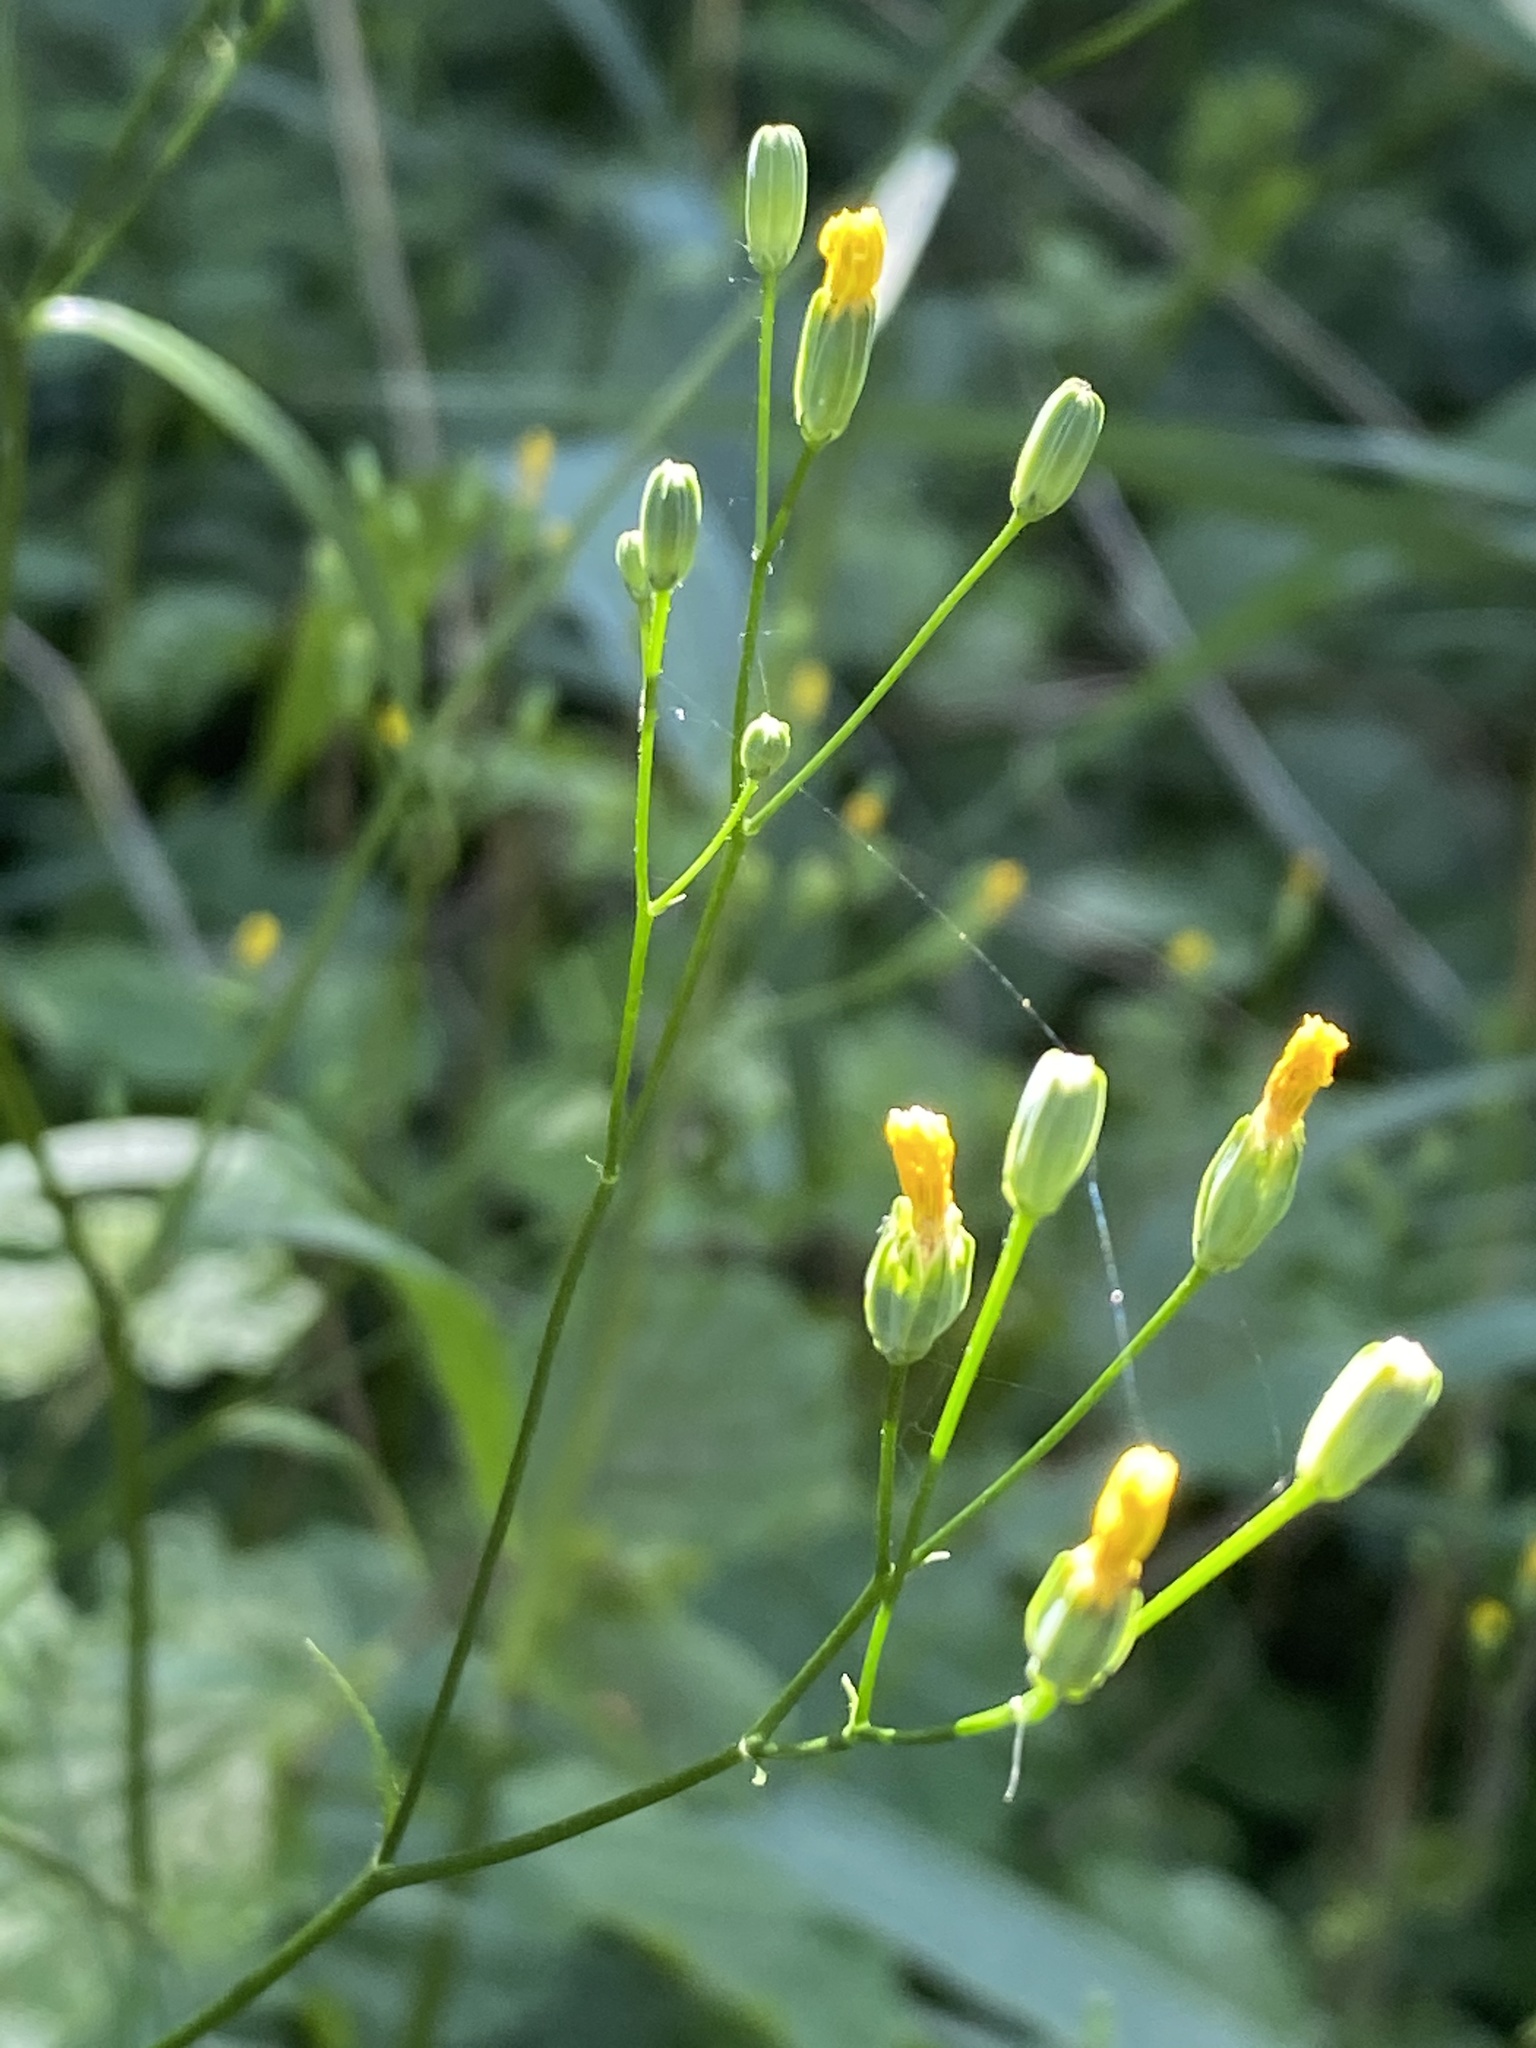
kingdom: Plantae
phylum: Tracheophyta
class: Magnoliopsida
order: Asterales
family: Asteraceae
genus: Lapsana
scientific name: Lapsana communis
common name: Nipplewort
